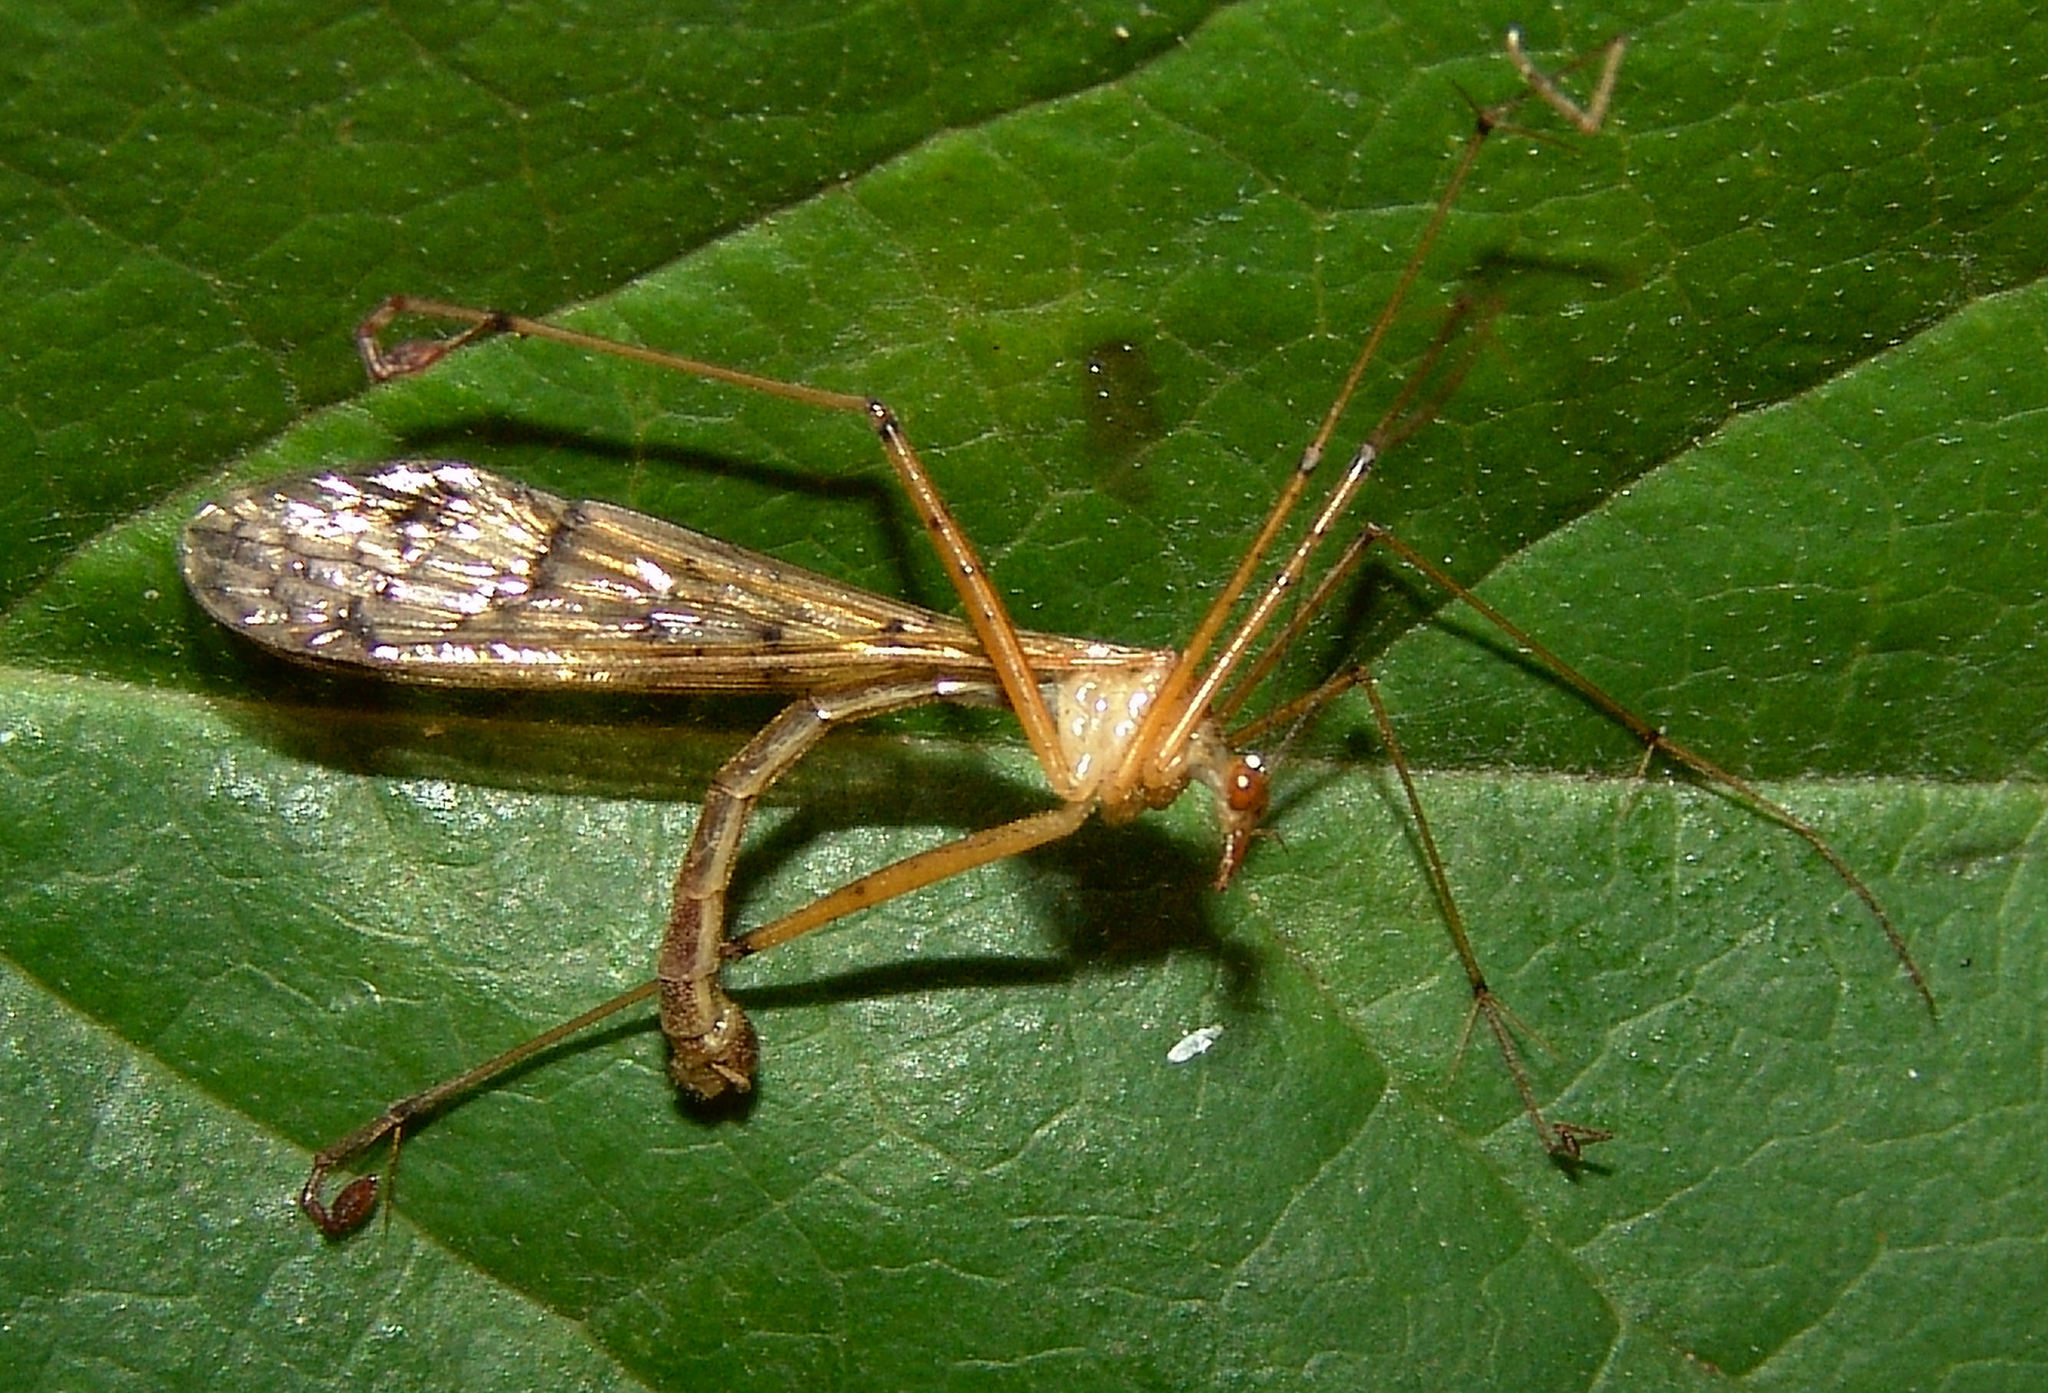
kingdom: Animalia
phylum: Arthropoda
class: Insecta
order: Mecoptera
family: Bittacidae
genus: Bittacus
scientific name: Bittacus punctiger
